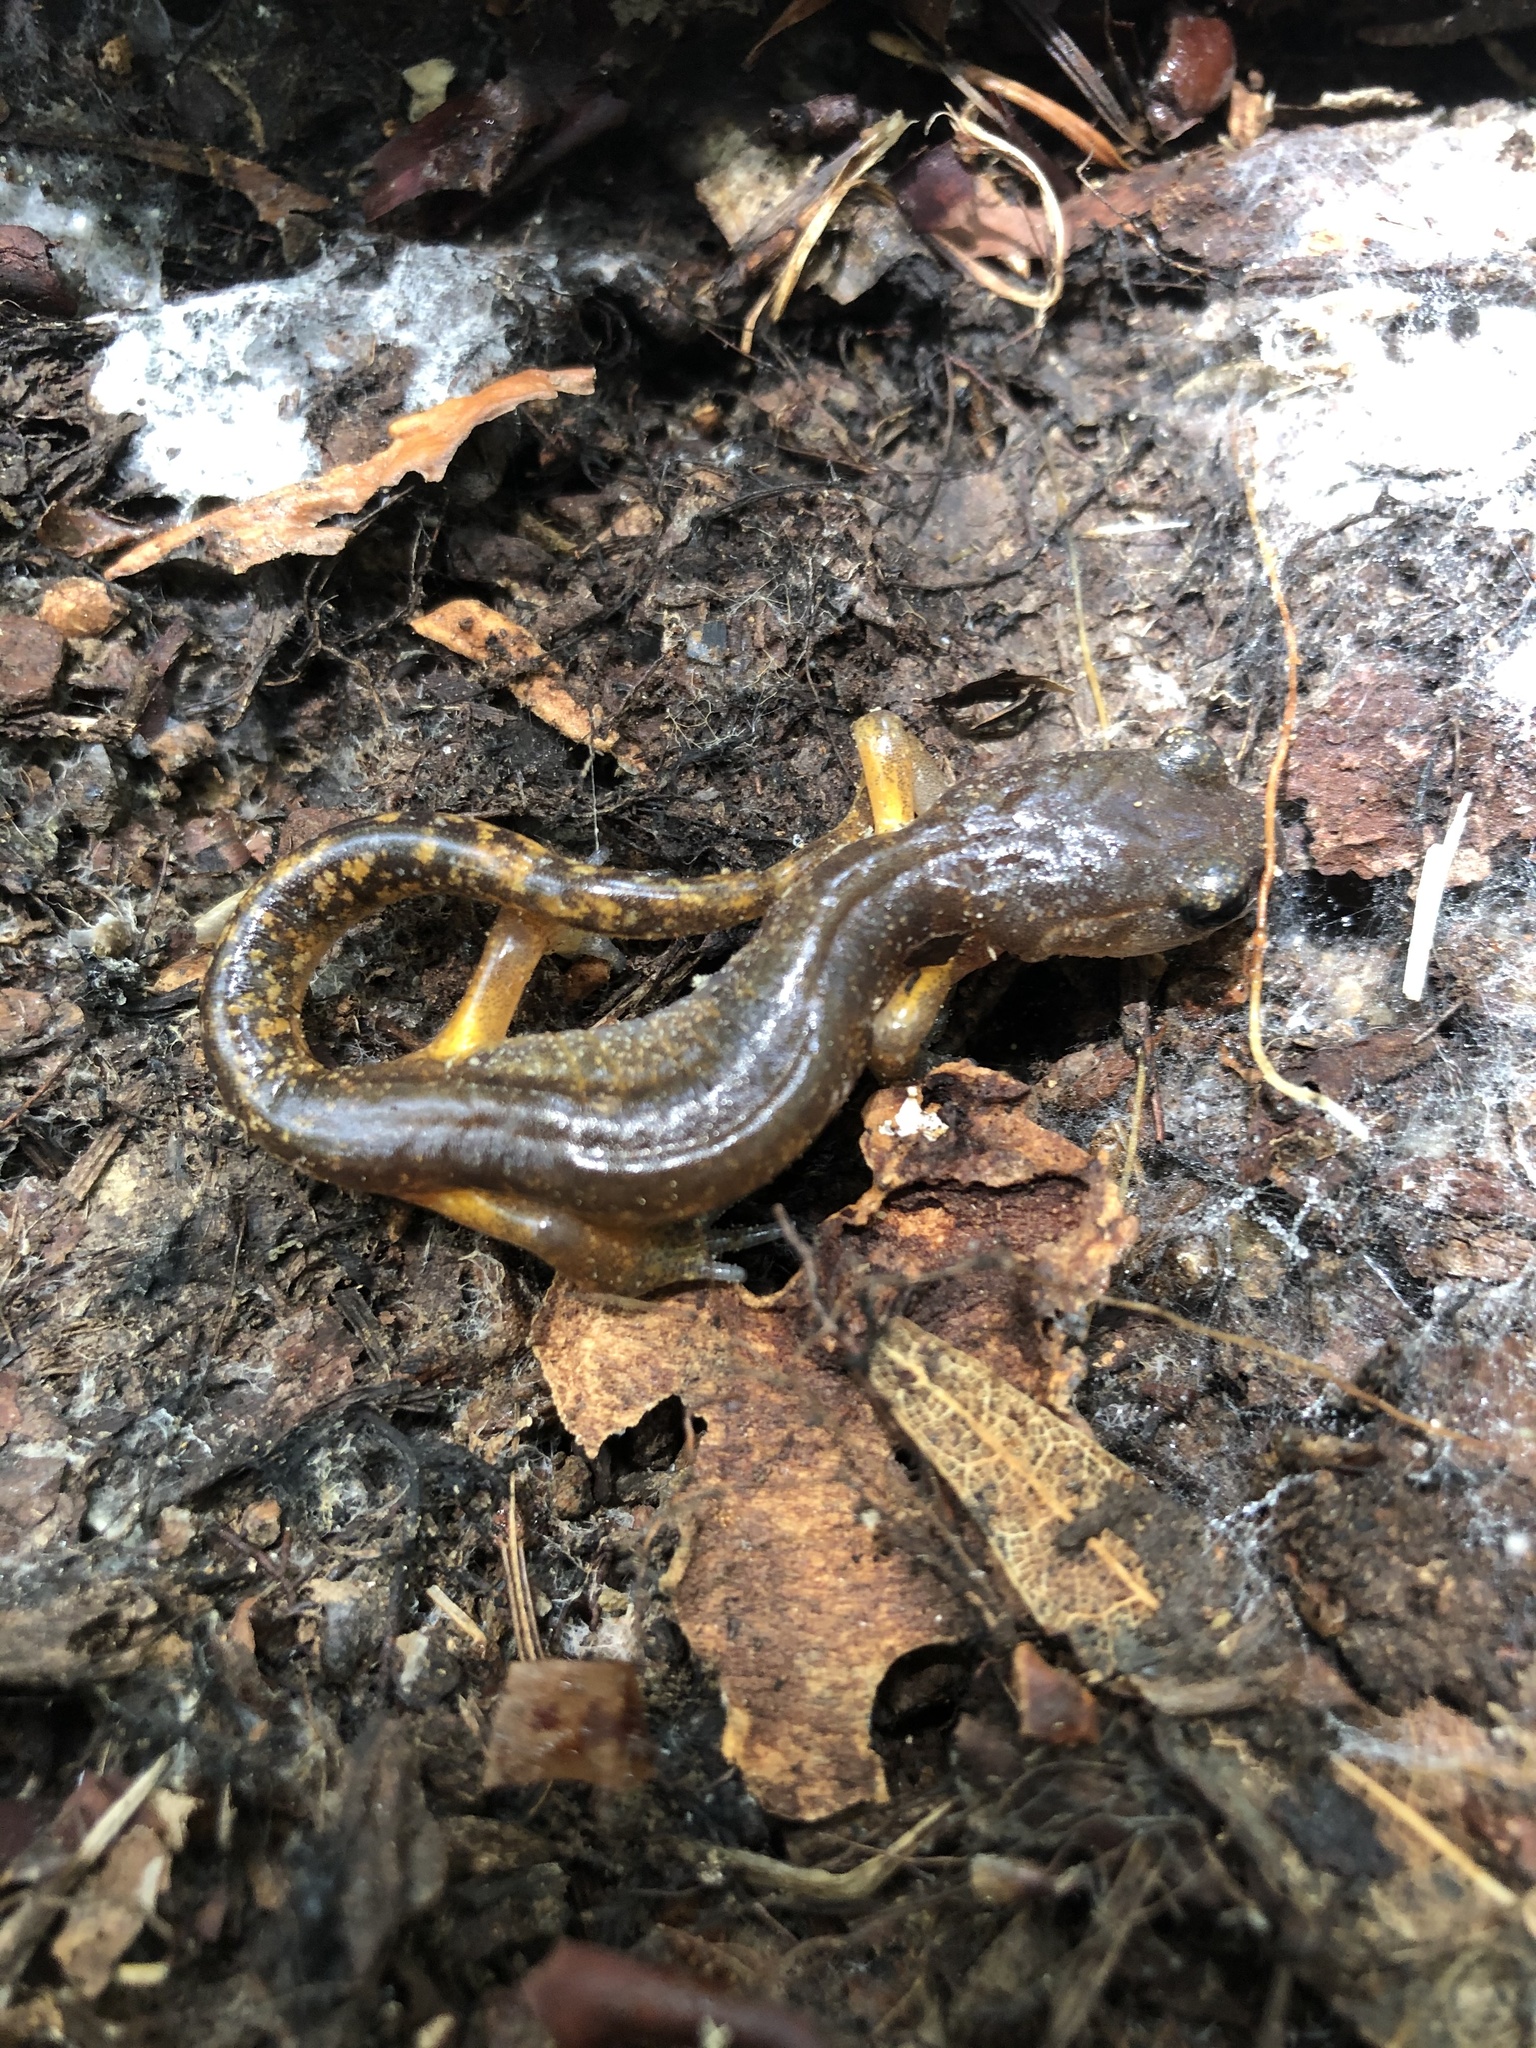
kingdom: Animalia
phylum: Chordata
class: Amphibia
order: Caudata
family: Plethodontidae
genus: Ensatina
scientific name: Ensatina eschscholtzii
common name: Ensatina
